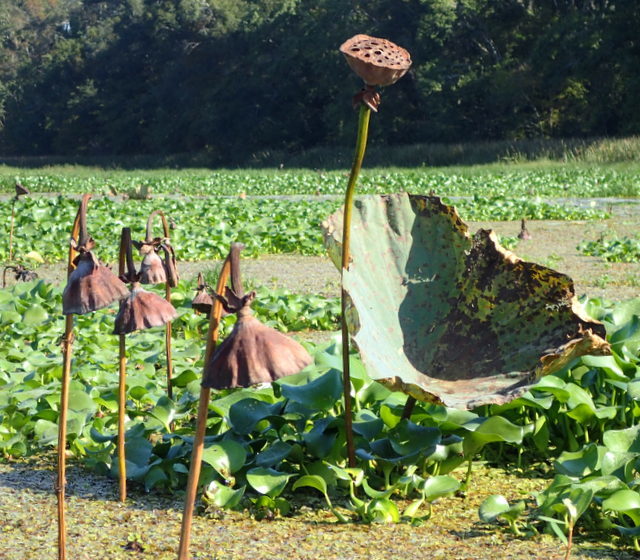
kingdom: Plantae
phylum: Tracheophyta
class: Magnoliopsida
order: Proteales
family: Nelumbonaceae
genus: Nelumbo
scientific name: Nelumbo lutea
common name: American lotus
